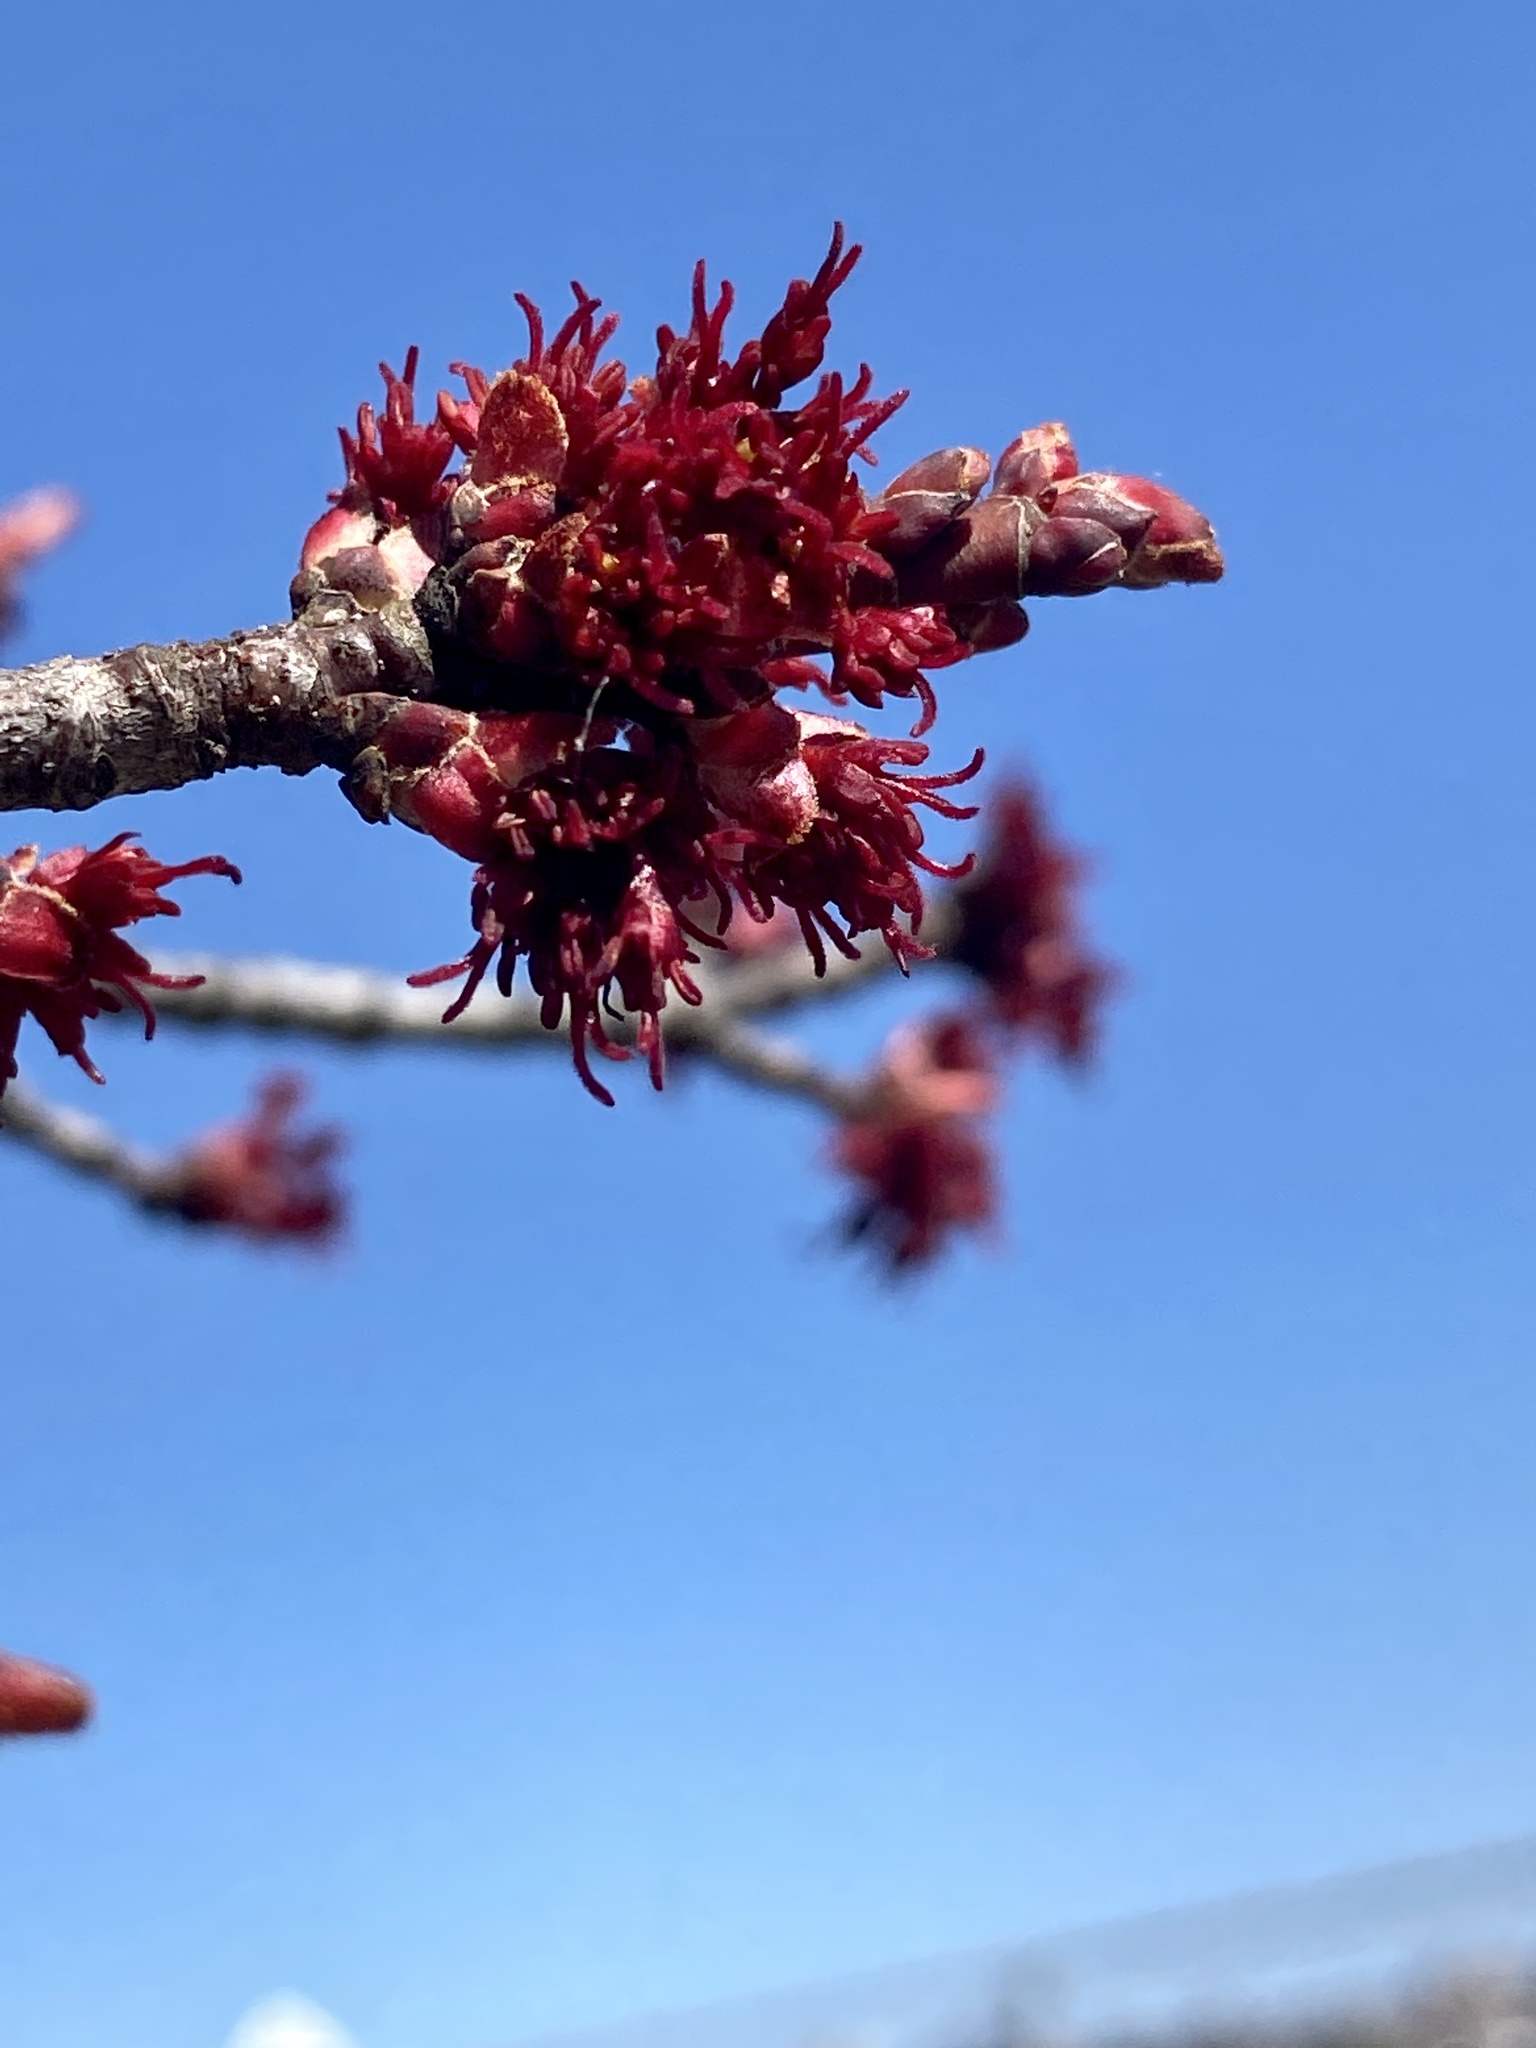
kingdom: Plantae
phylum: Tracheophyta
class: Magnoliopsida
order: Sapindales
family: Sapindaceae
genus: Acer
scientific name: Acer rubrum
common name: Red maple
